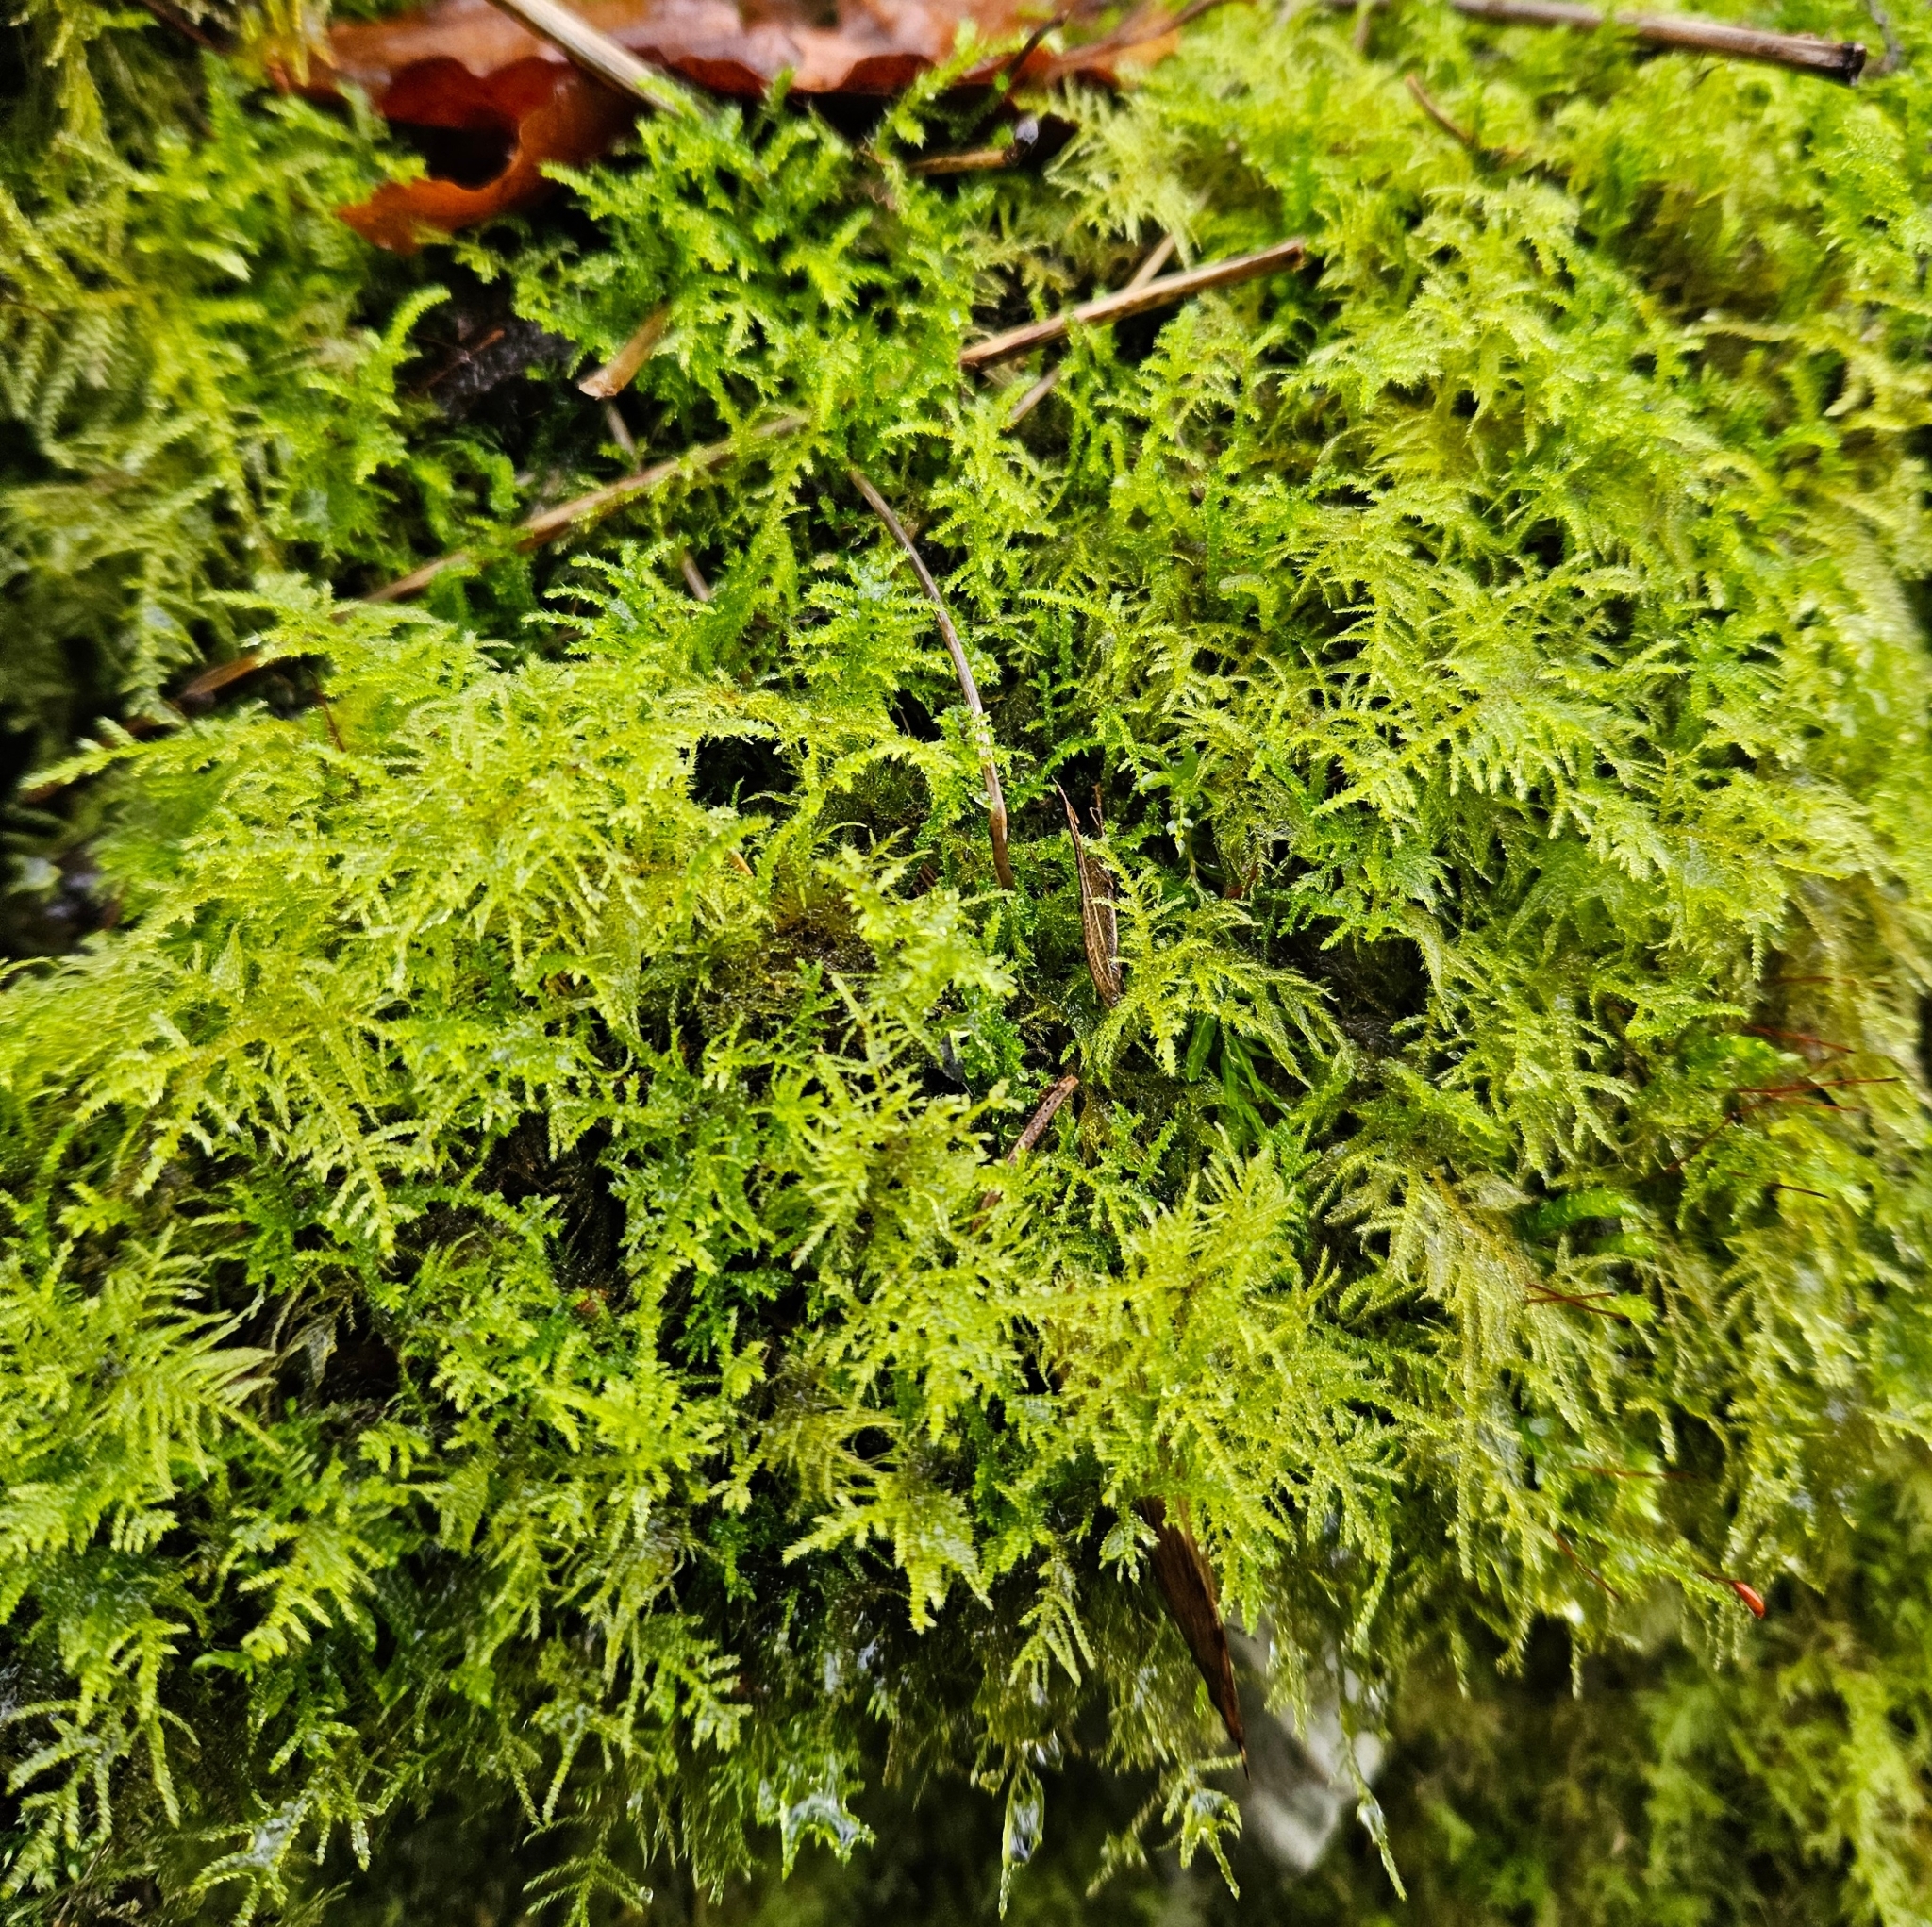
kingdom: Plantae
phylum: Bryophyta
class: Bryopsida
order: Hypnales
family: Brachytheciaceae
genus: Kindbergia
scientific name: Kindbergia praelonga
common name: Slender beaked moss
